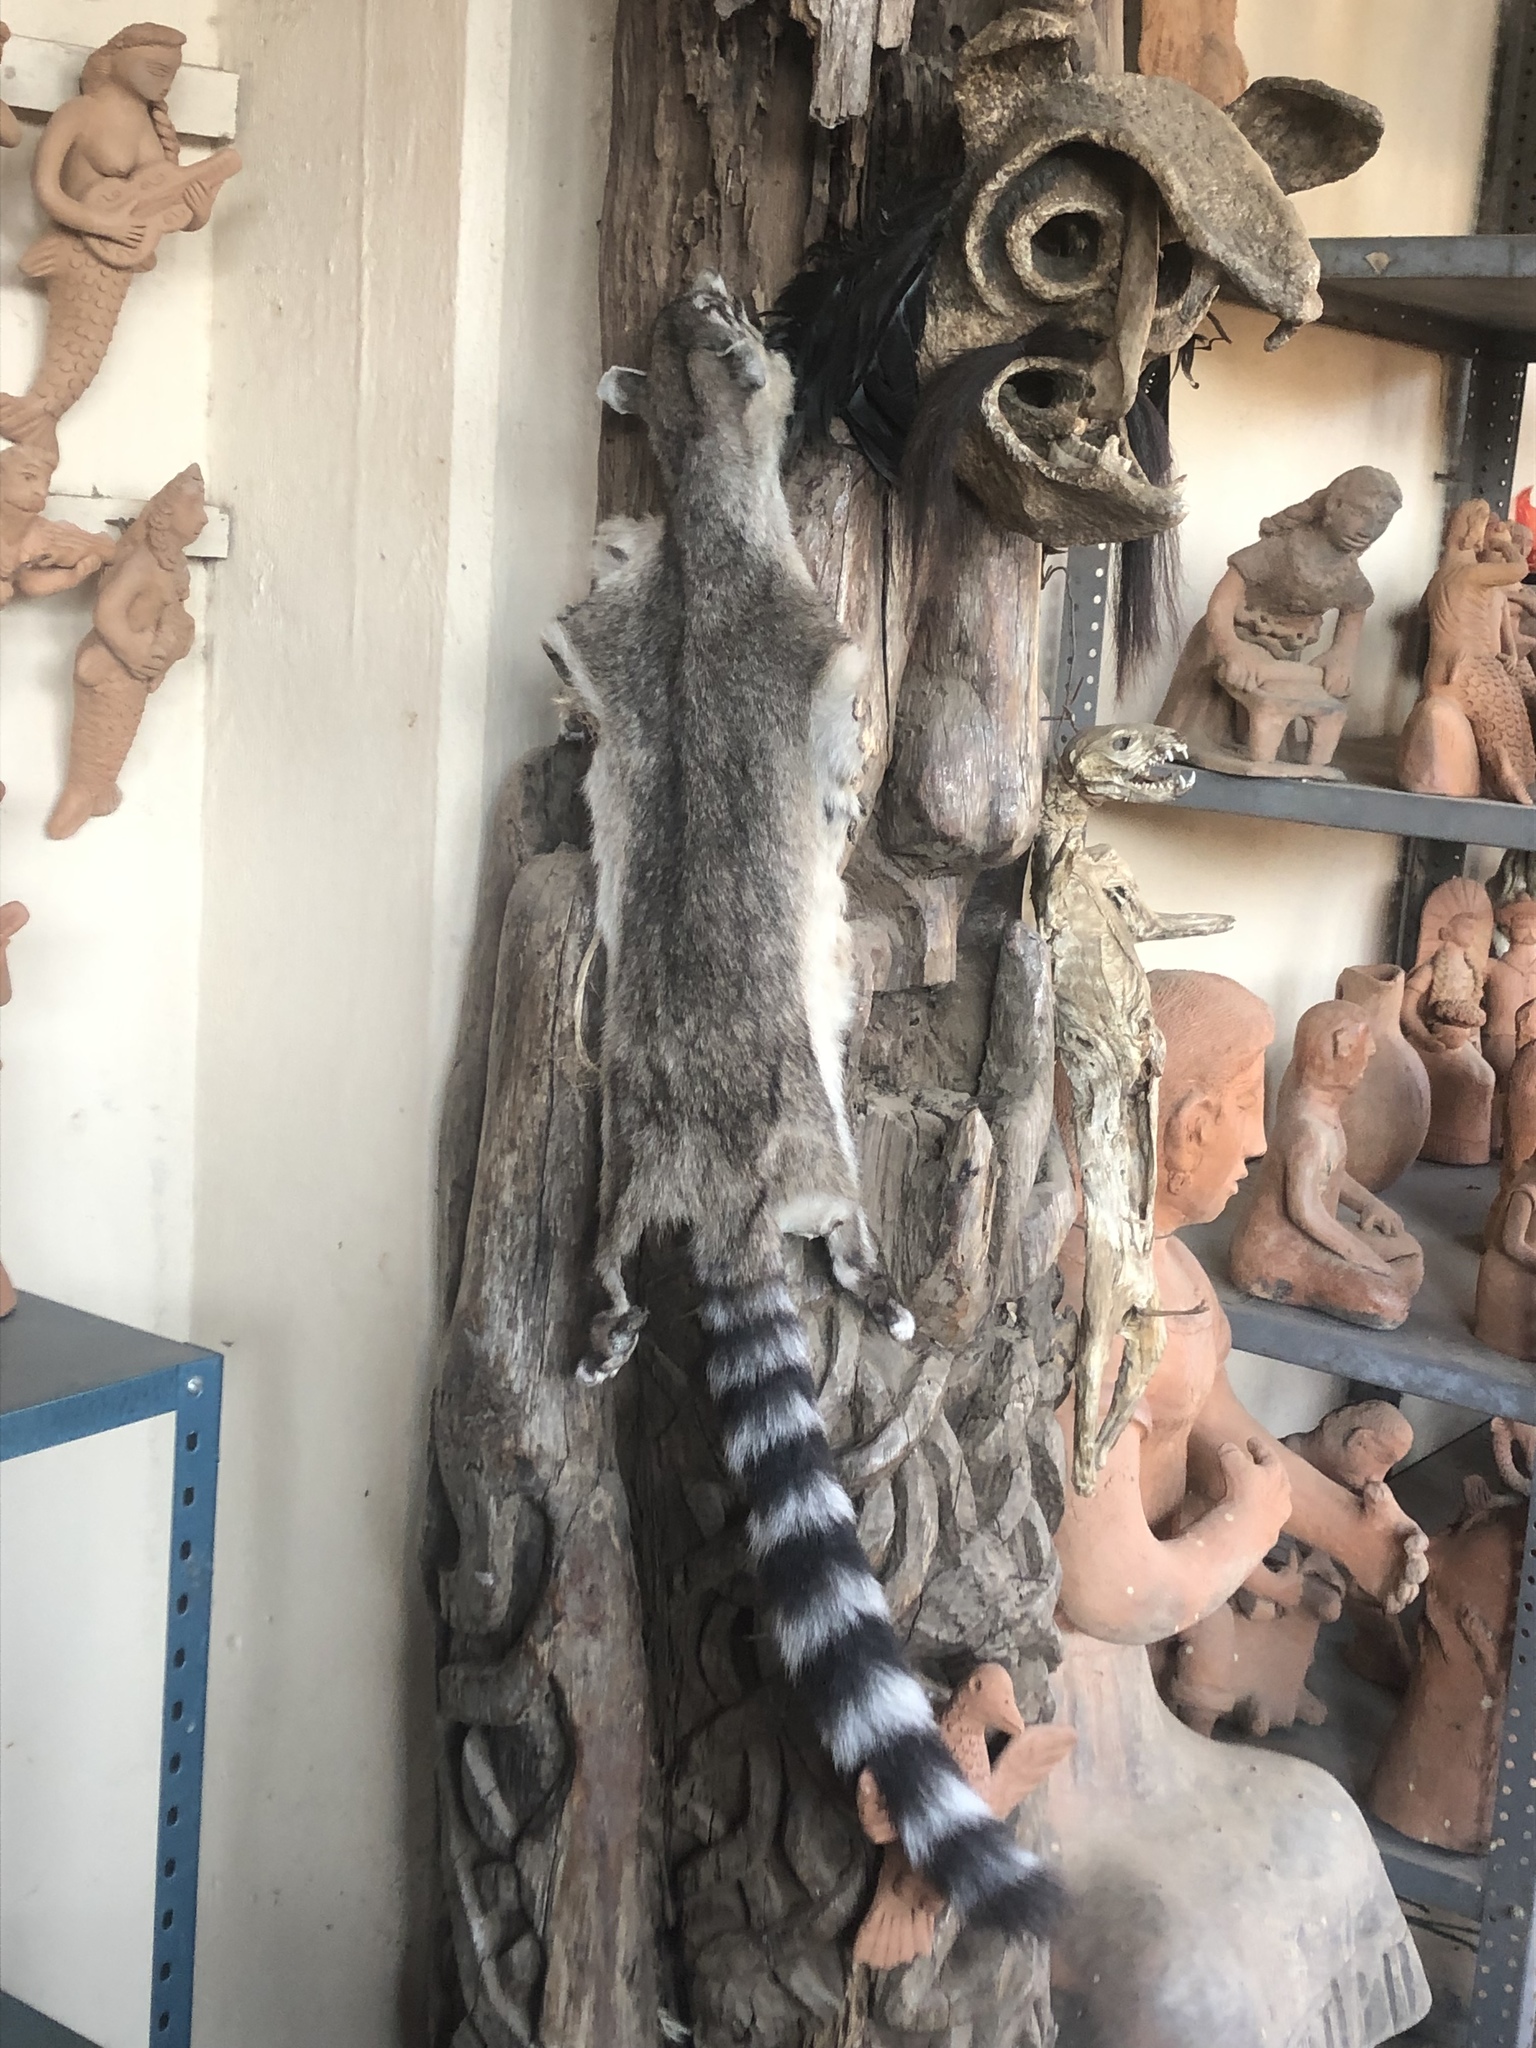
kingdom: Animalia
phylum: Chordata
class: Mammalia
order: Carnivora
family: Procyonidae
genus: Bassariscus
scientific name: Bassariscus astutus
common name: Ringtail
